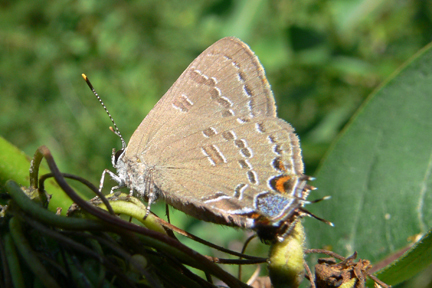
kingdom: Animalia
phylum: Arthropoda
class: Insecta
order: Lepidoptera
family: Lycaenidae
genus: Satyrium
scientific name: Satyrium calanus
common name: Banded hairstreak
